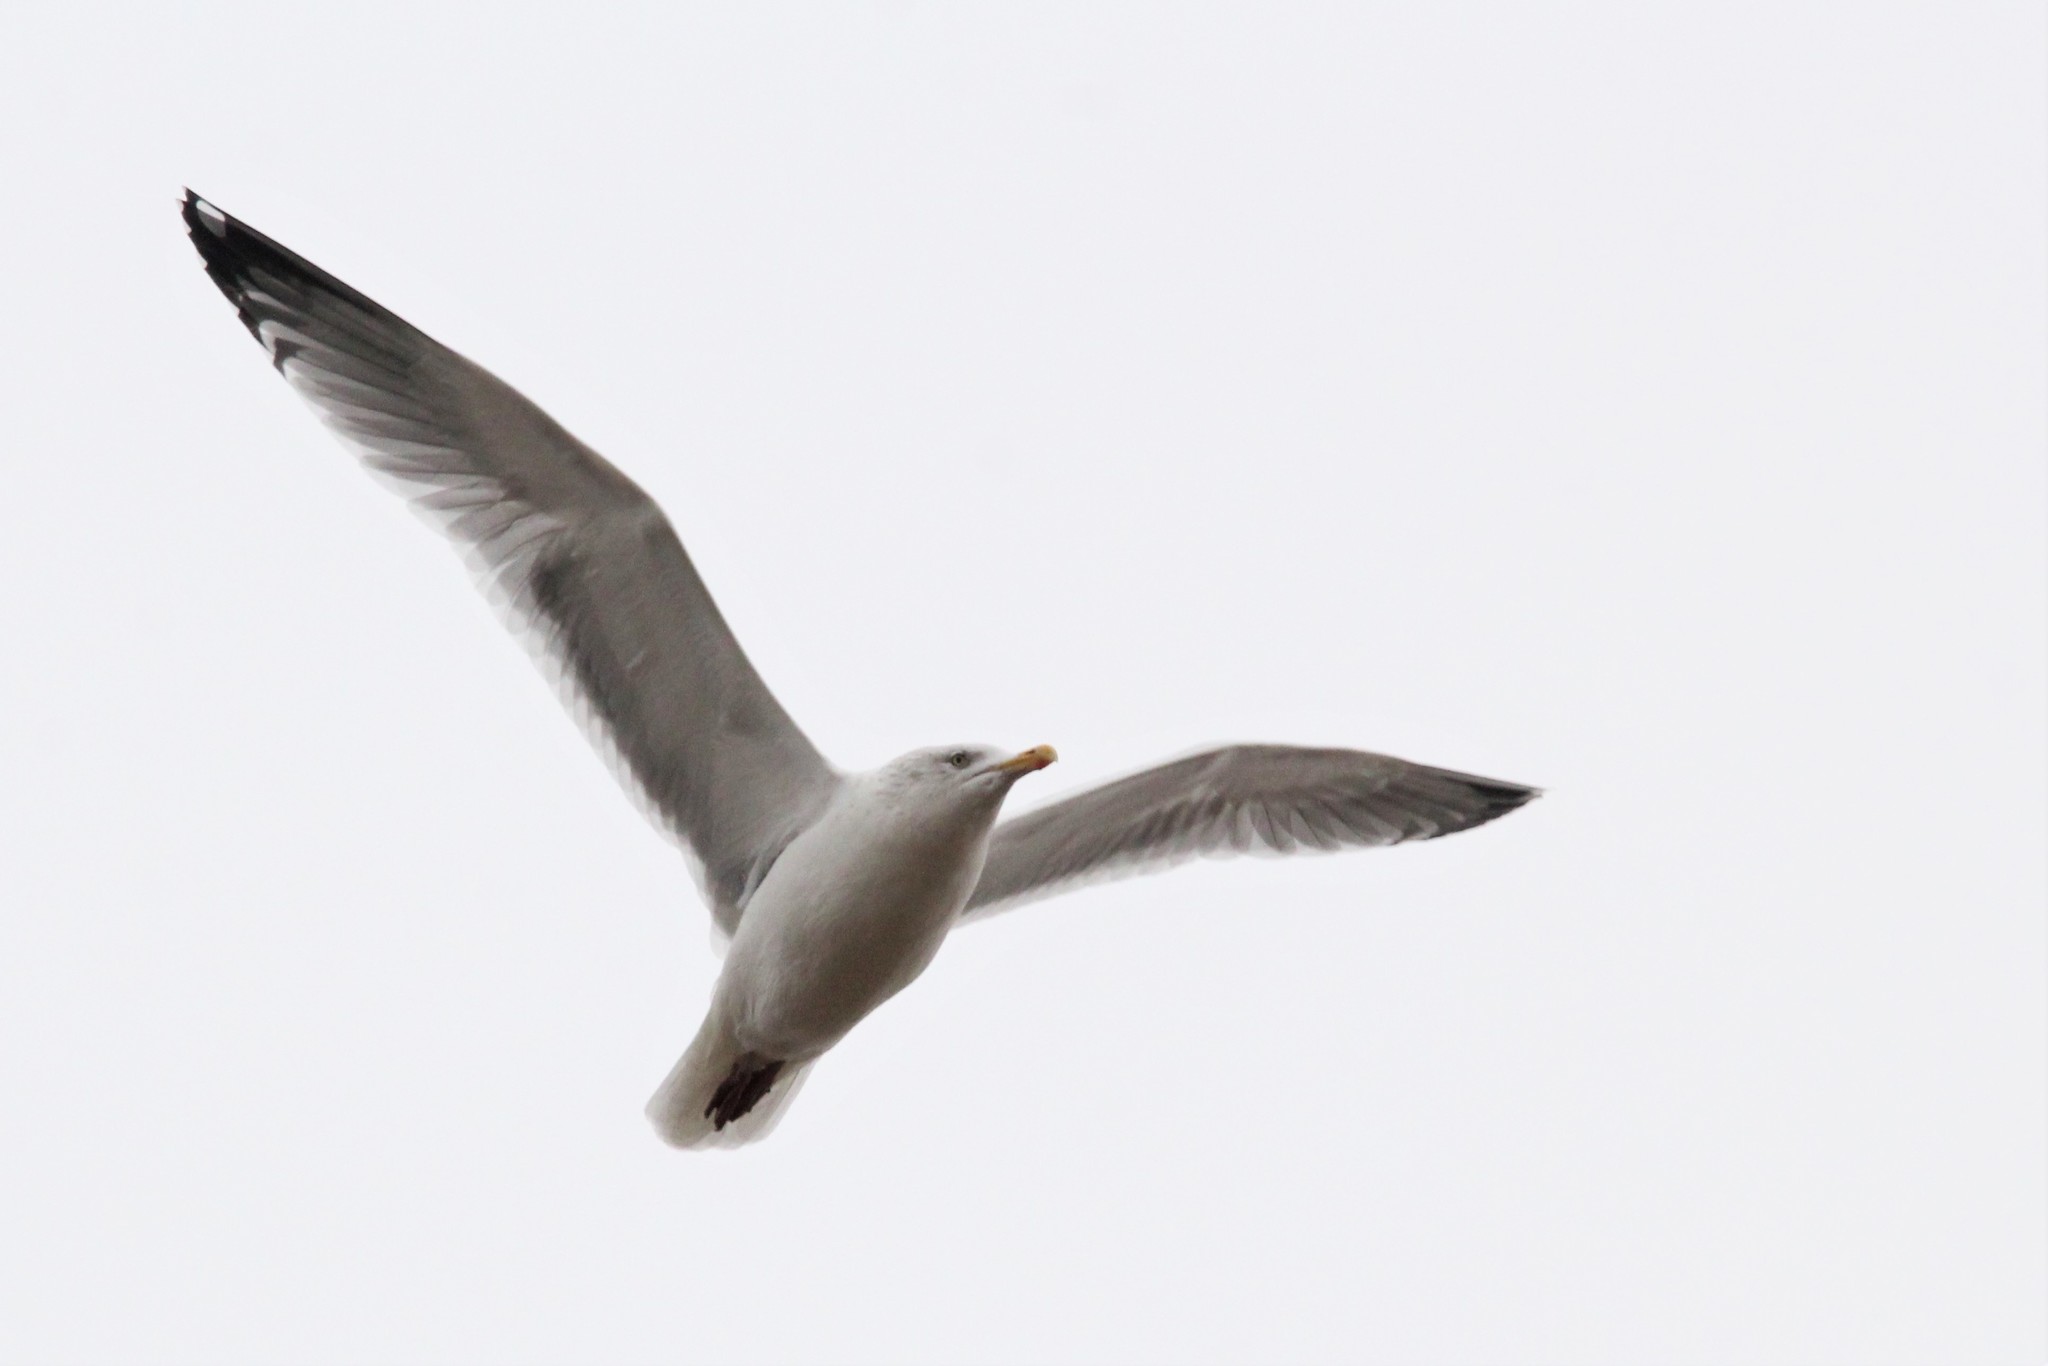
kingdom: Animalia
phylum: Chordata
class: Aves
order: Charadriiformes
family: Laridae
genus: Larus
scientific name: Larus argentatus
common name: Herring gull
